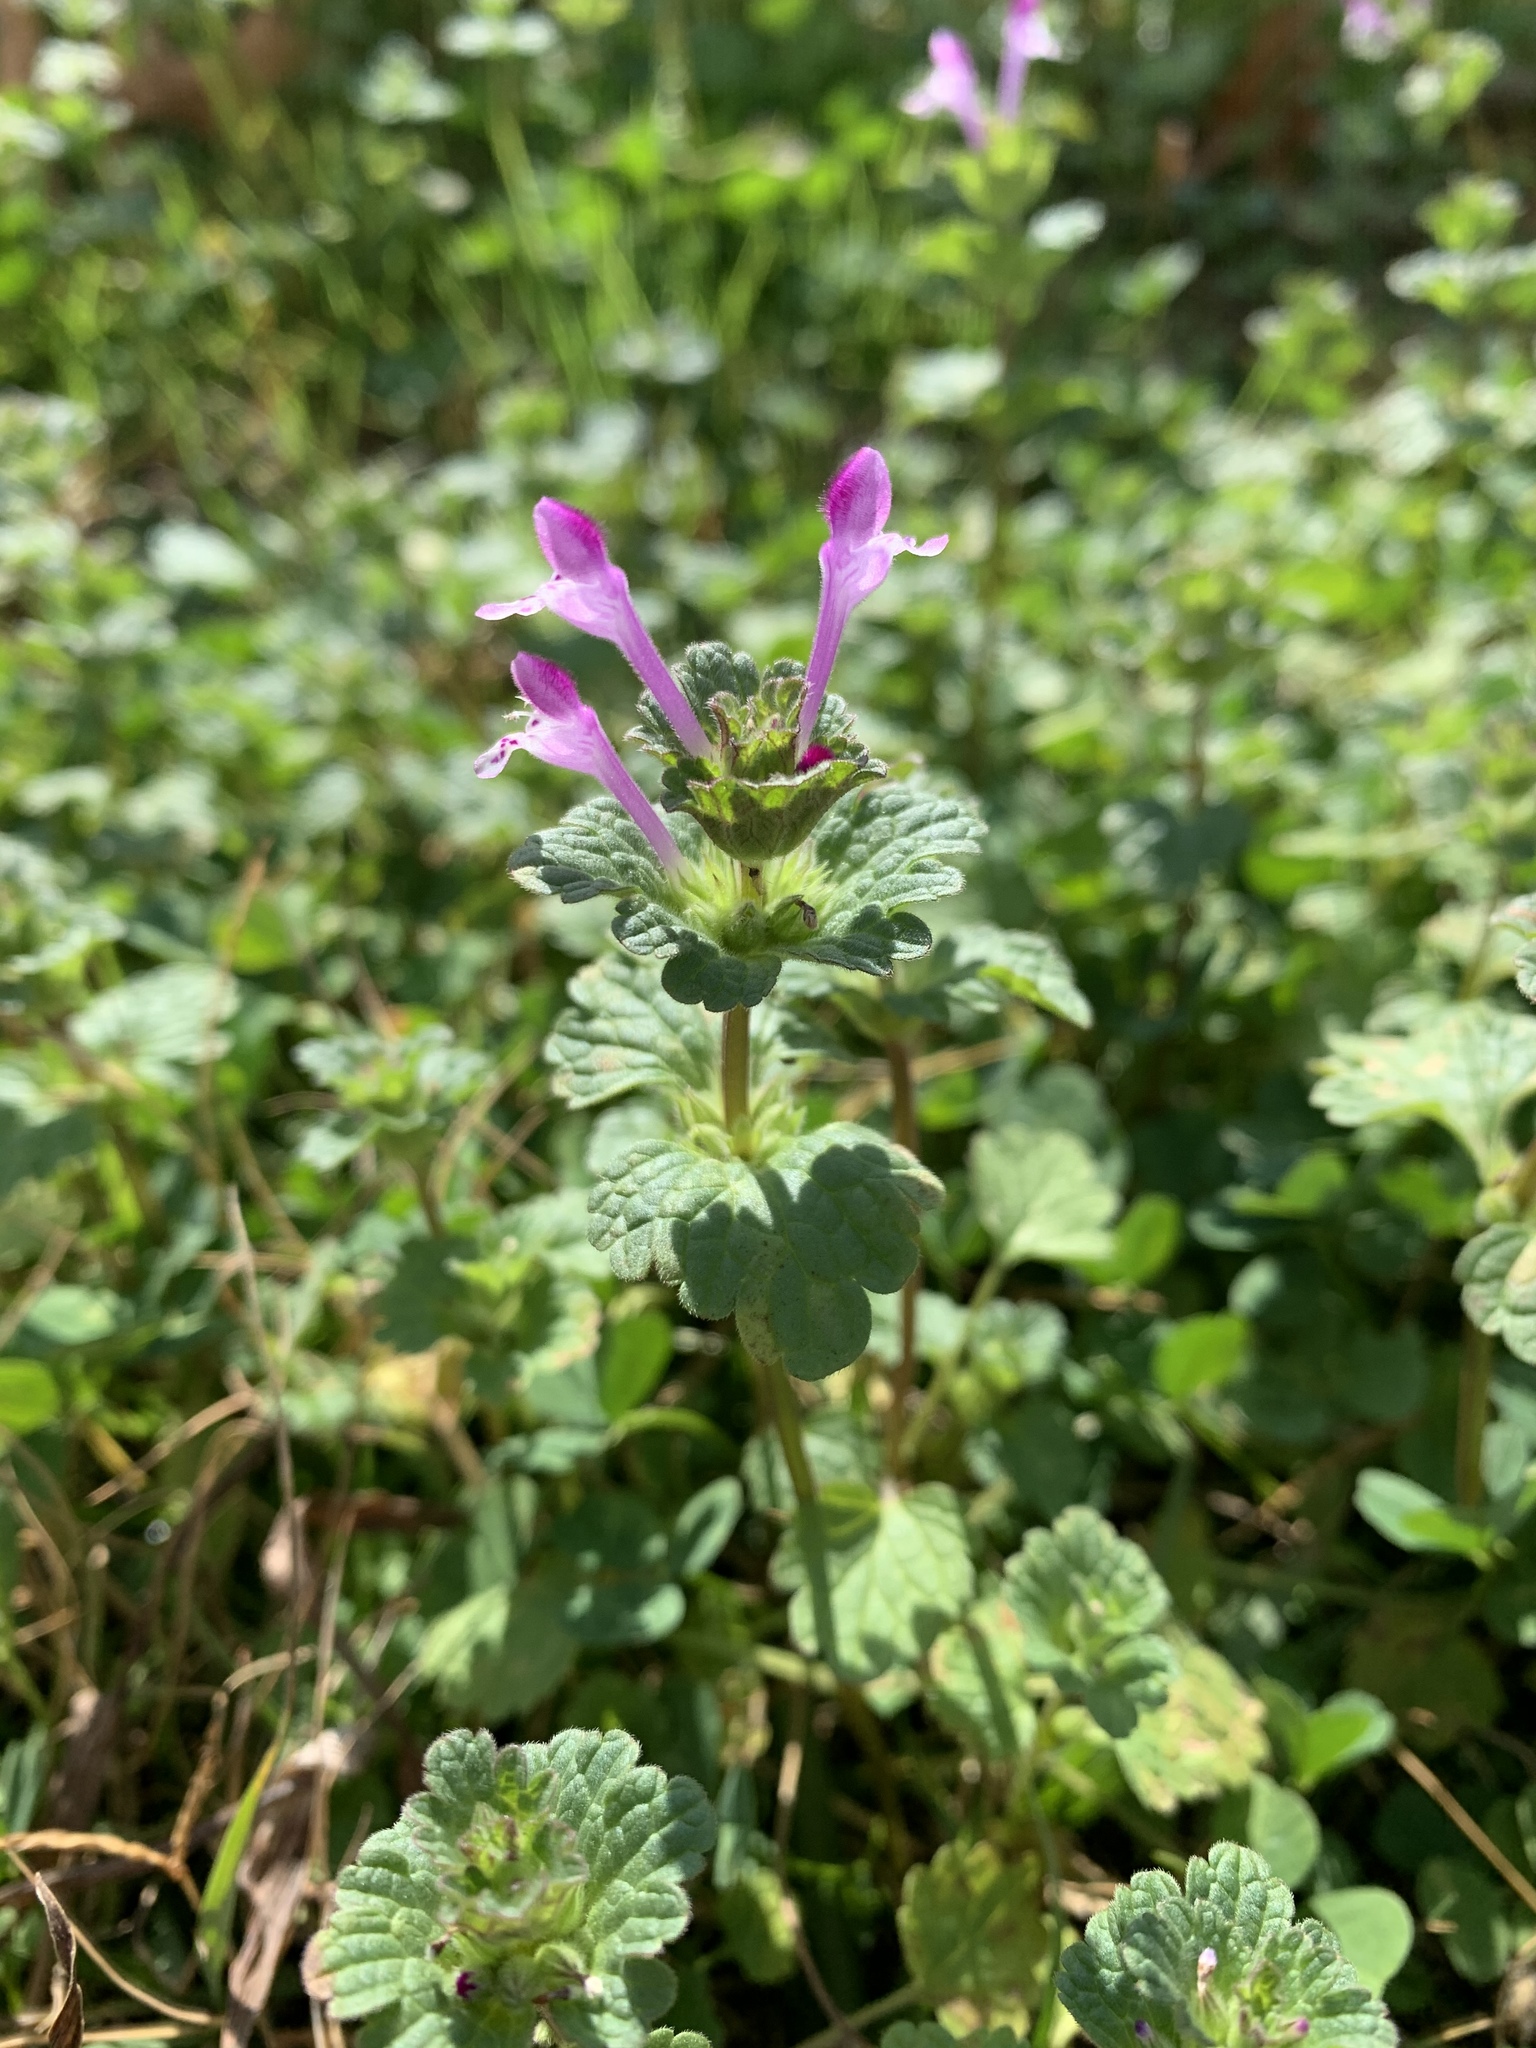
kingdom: Plantae
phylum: Tracheophyta
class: Magnoliopsida
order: Lamiales
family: Lamiaceae
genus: Lamium
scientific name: Lamium amplexicaule
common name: Henbit dead-nettle
